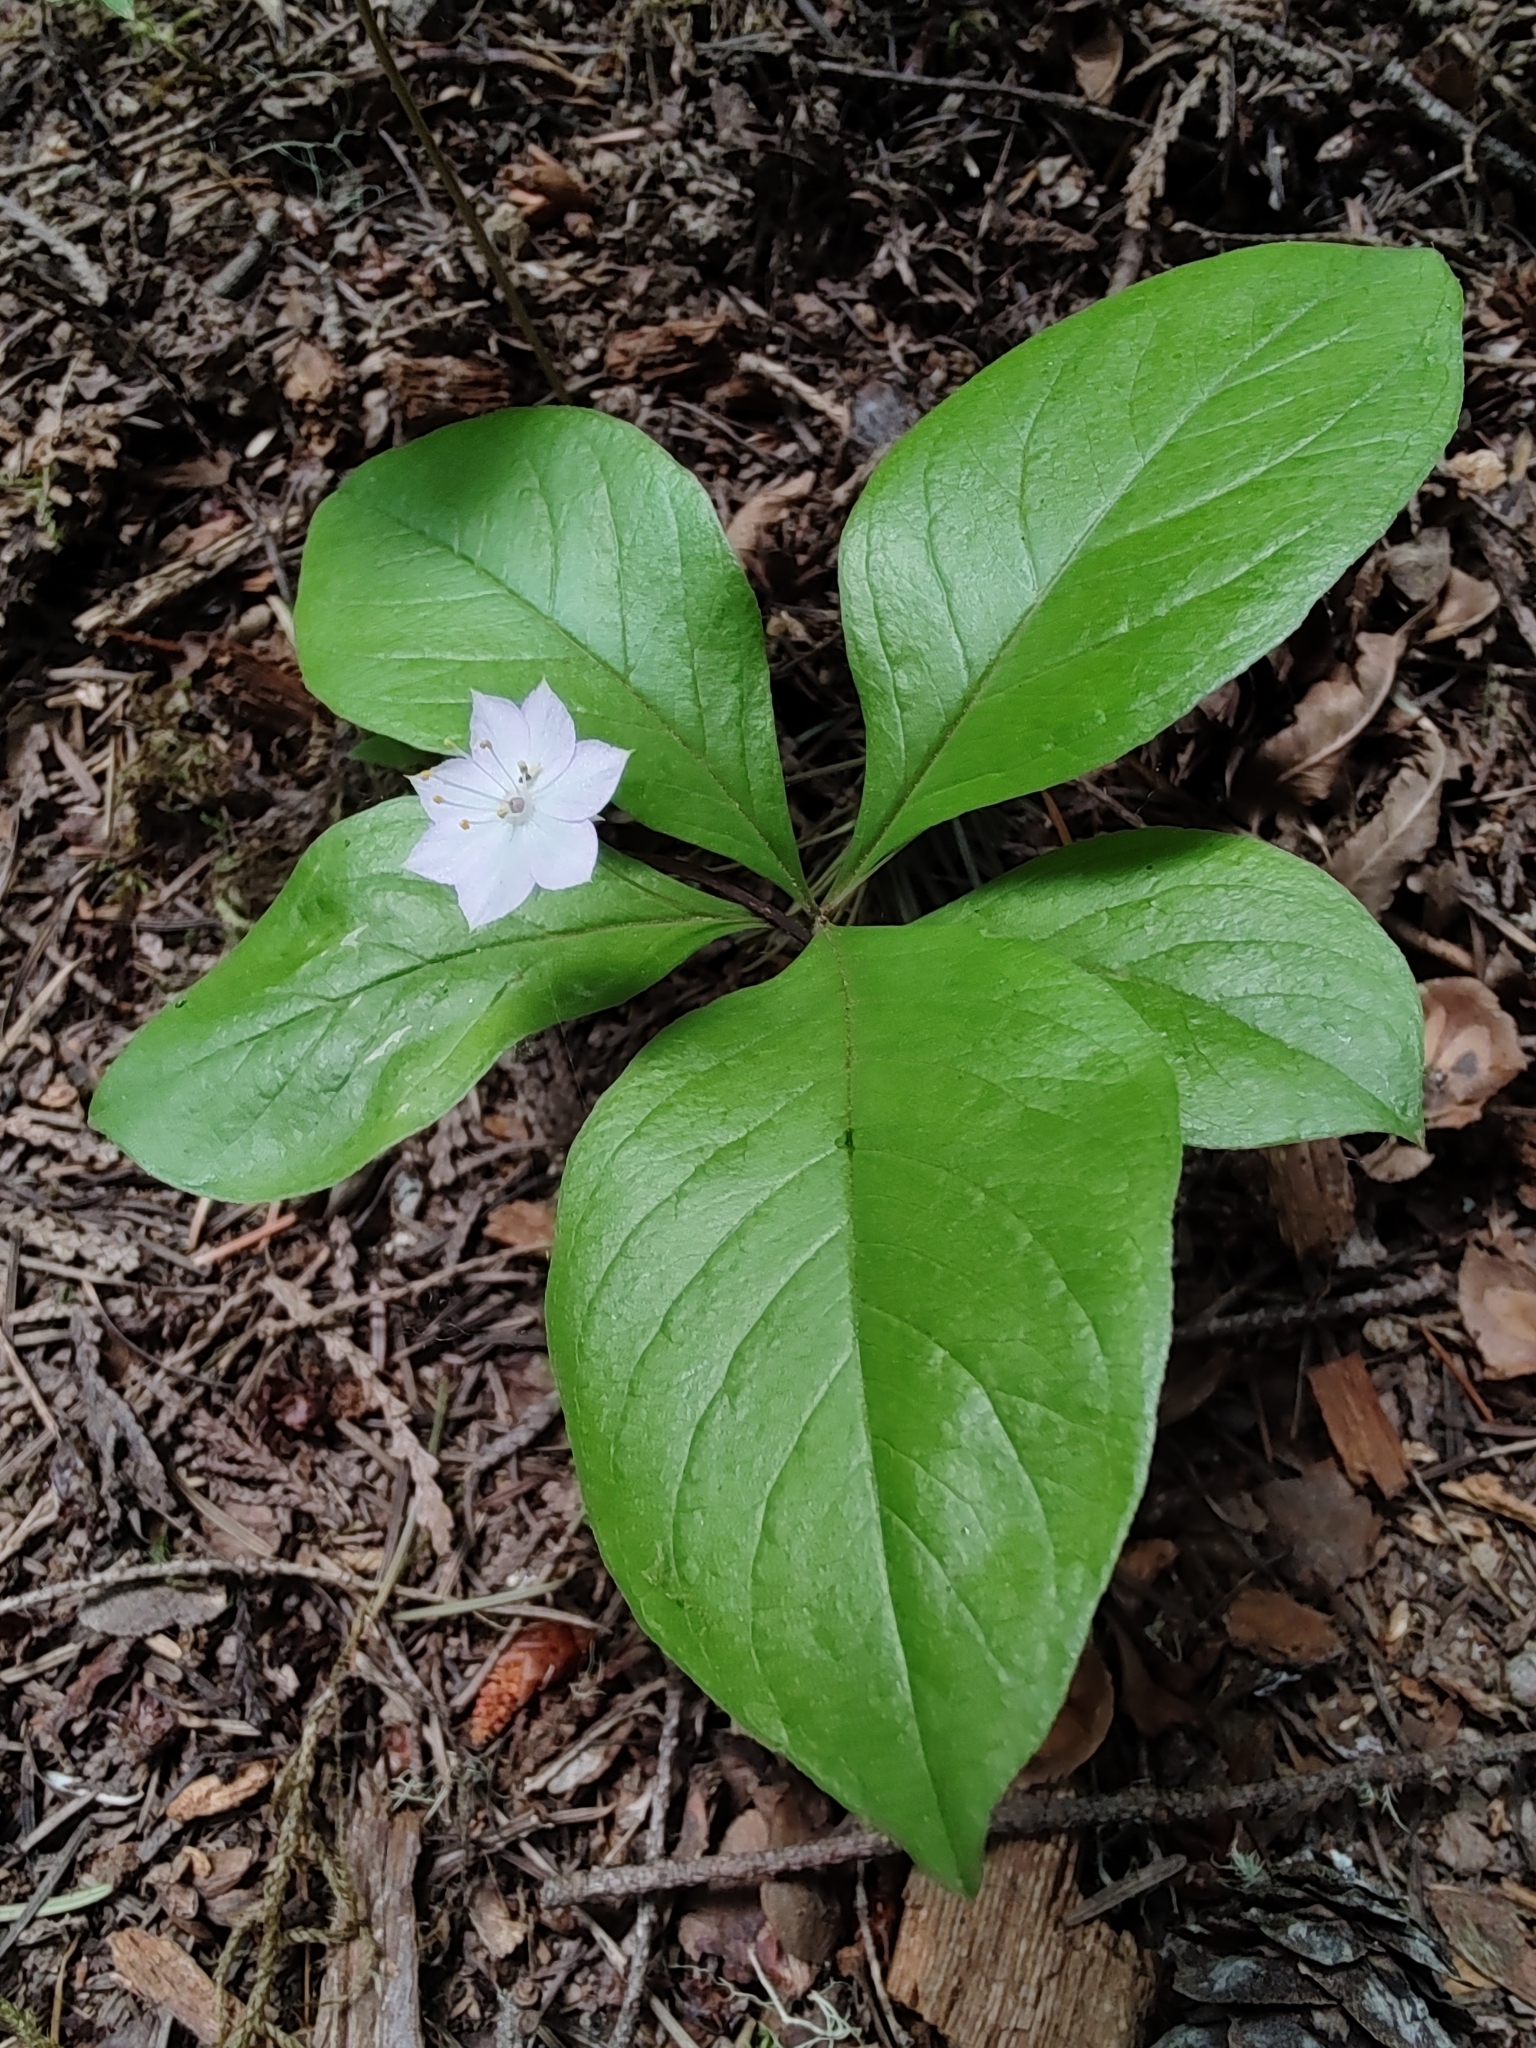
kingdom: Plantae
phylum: Tracheophyta
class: Magnoliopsida
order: Ericales
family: Primulaceae
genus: Lysimachia
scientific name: Lysimachia latifolia
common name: Pacific starflower
